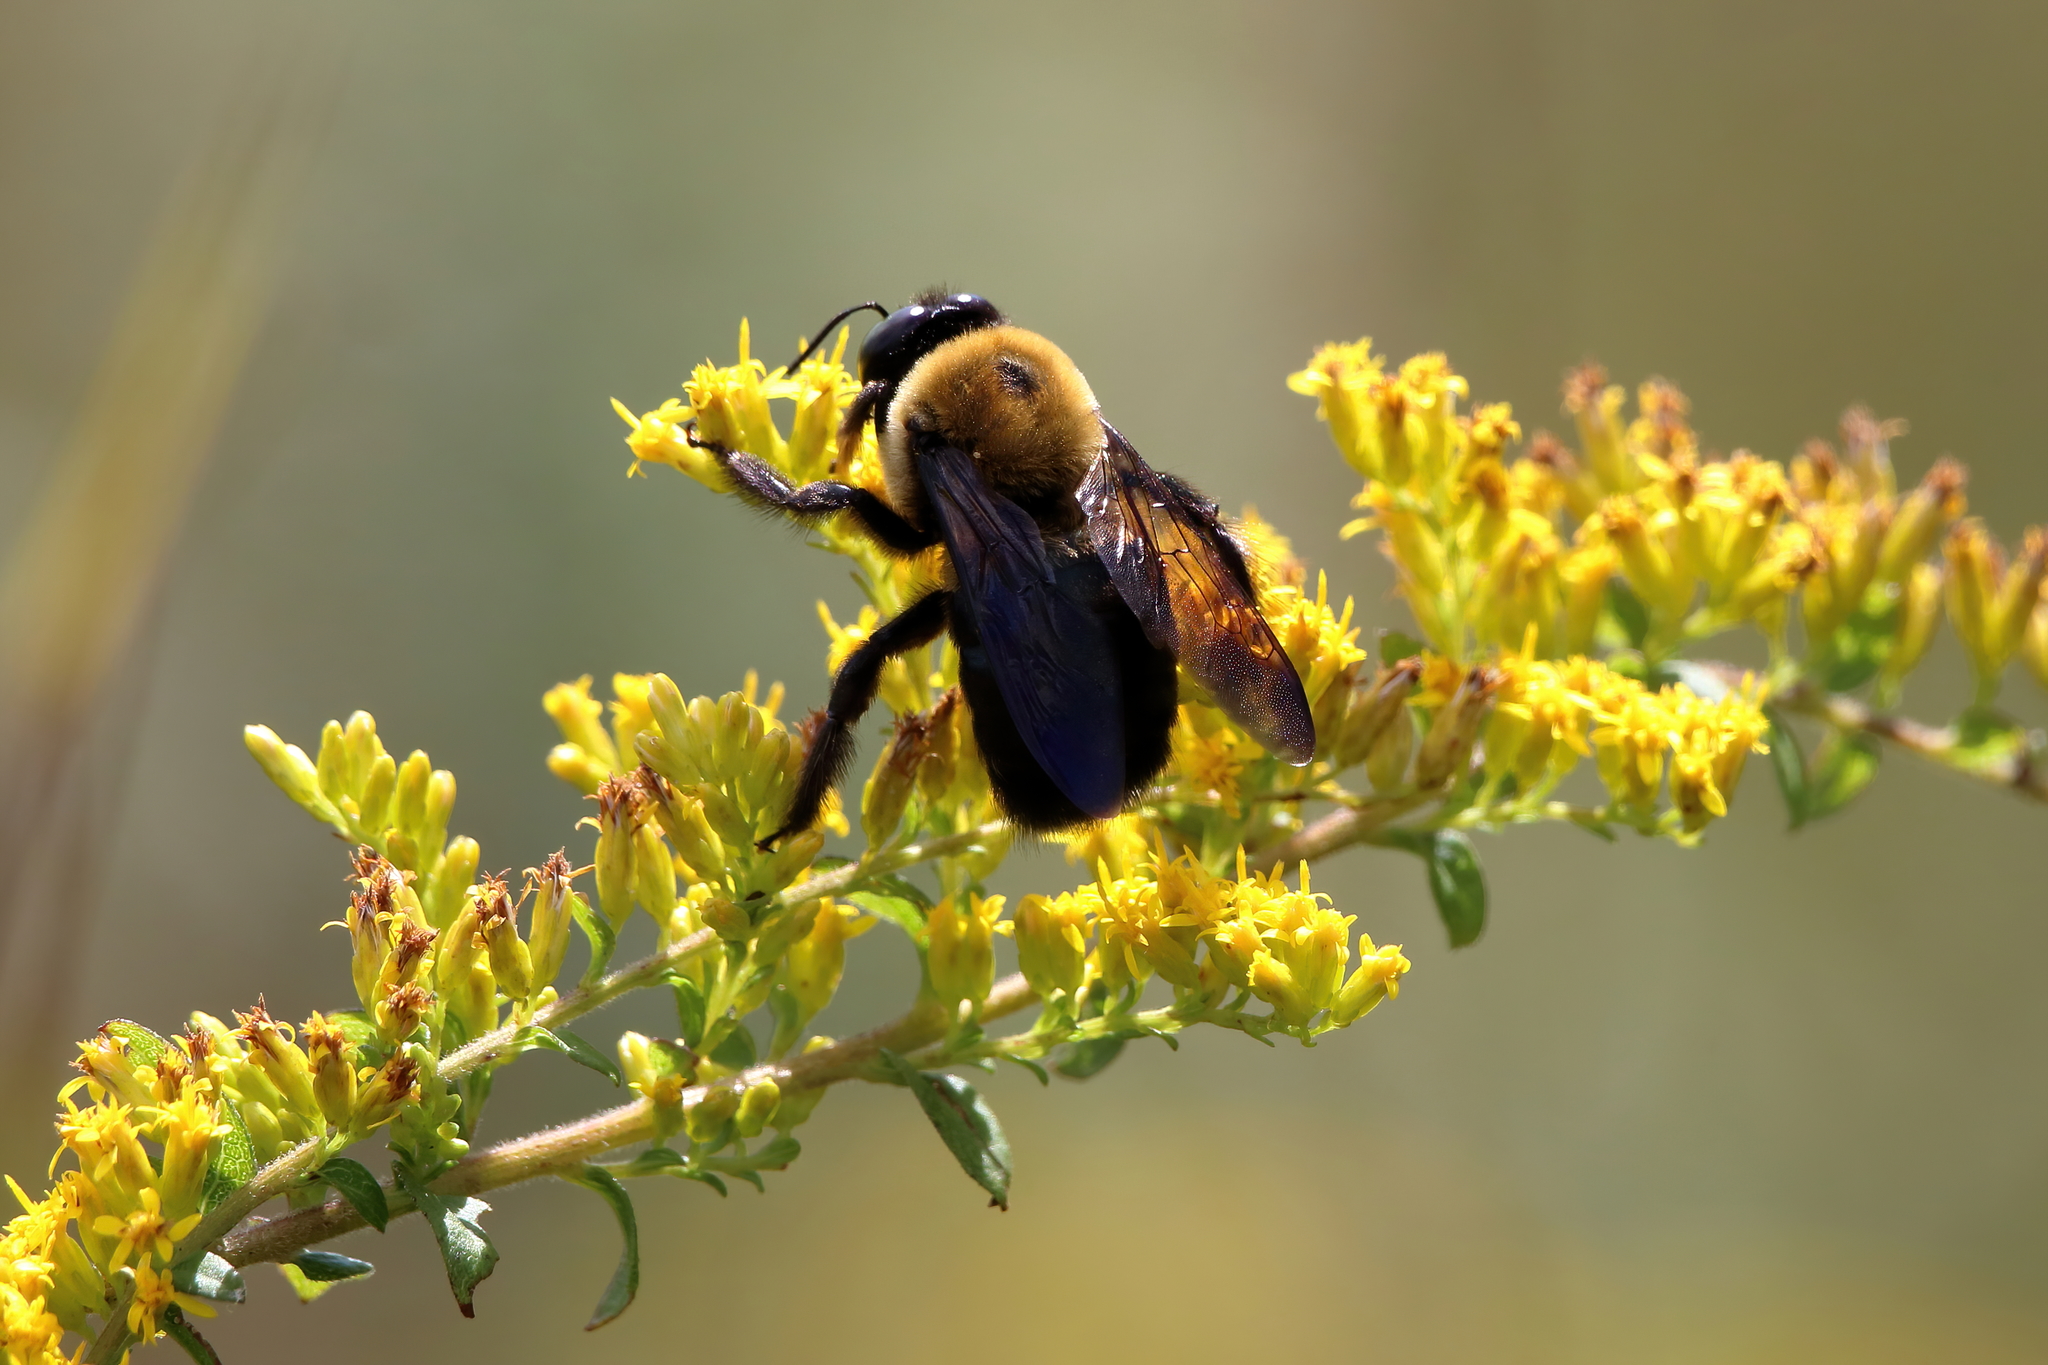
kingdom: Animalia
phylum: Arthropoda
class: Insecta
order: Hymenoptera
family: Apidae
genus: Xylocopa
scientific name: Xylocopa virginica
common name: Carpenter bee
